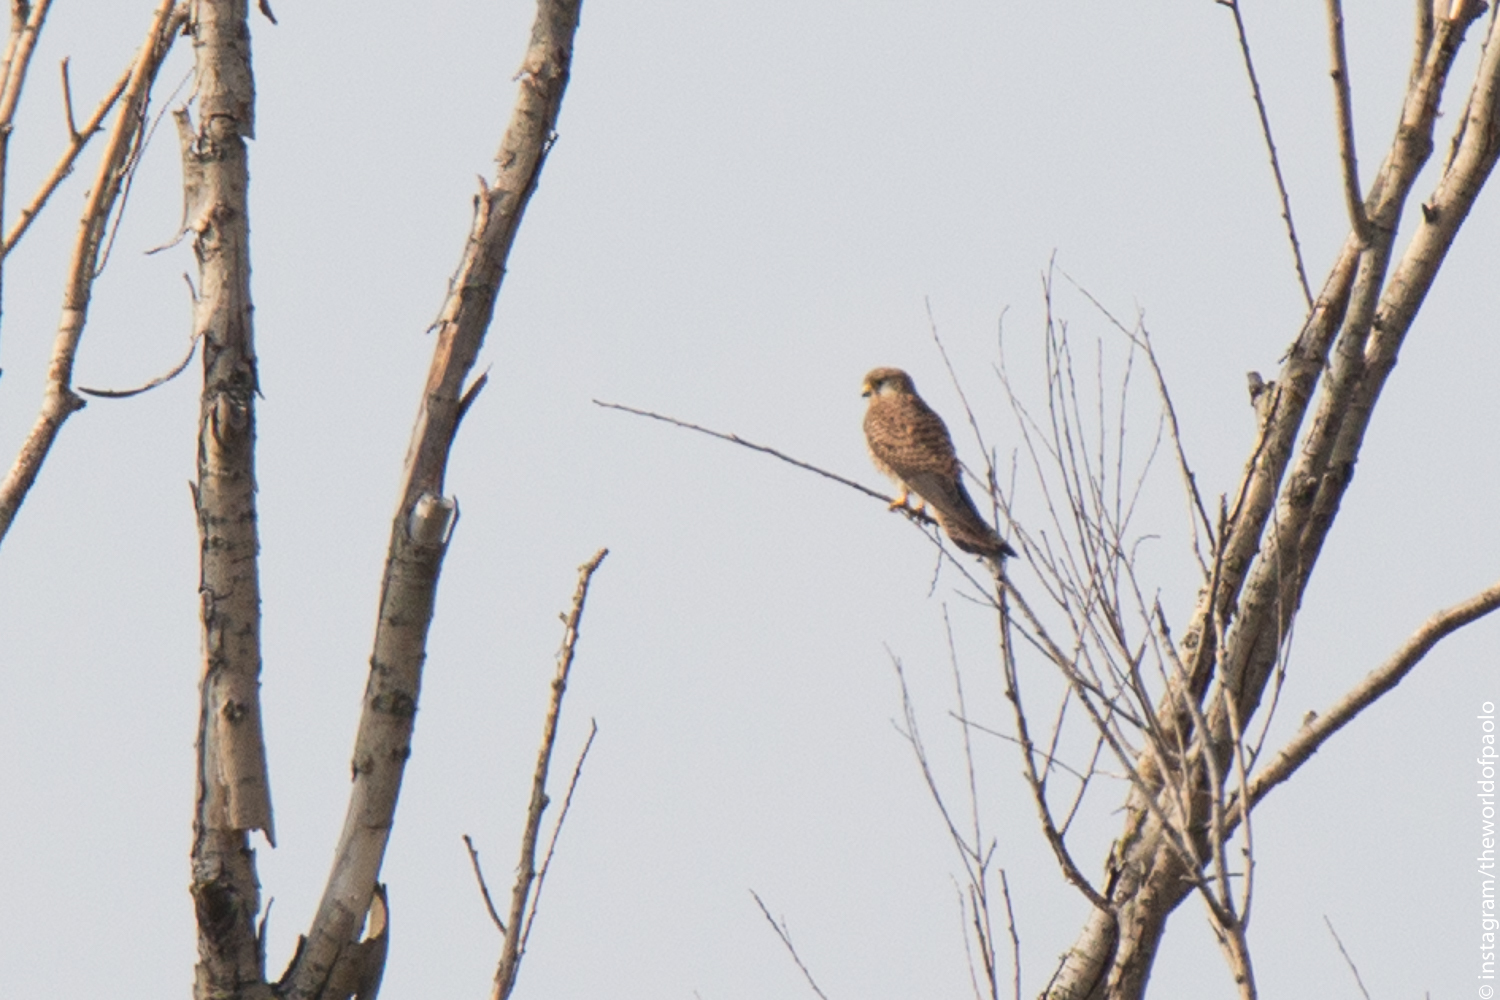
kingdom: Animalia
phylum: Chordata
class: Aves
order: Falconiformes
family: Falconidae
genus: Falco
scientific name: Falco tinnunculus
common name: Common kestrel
